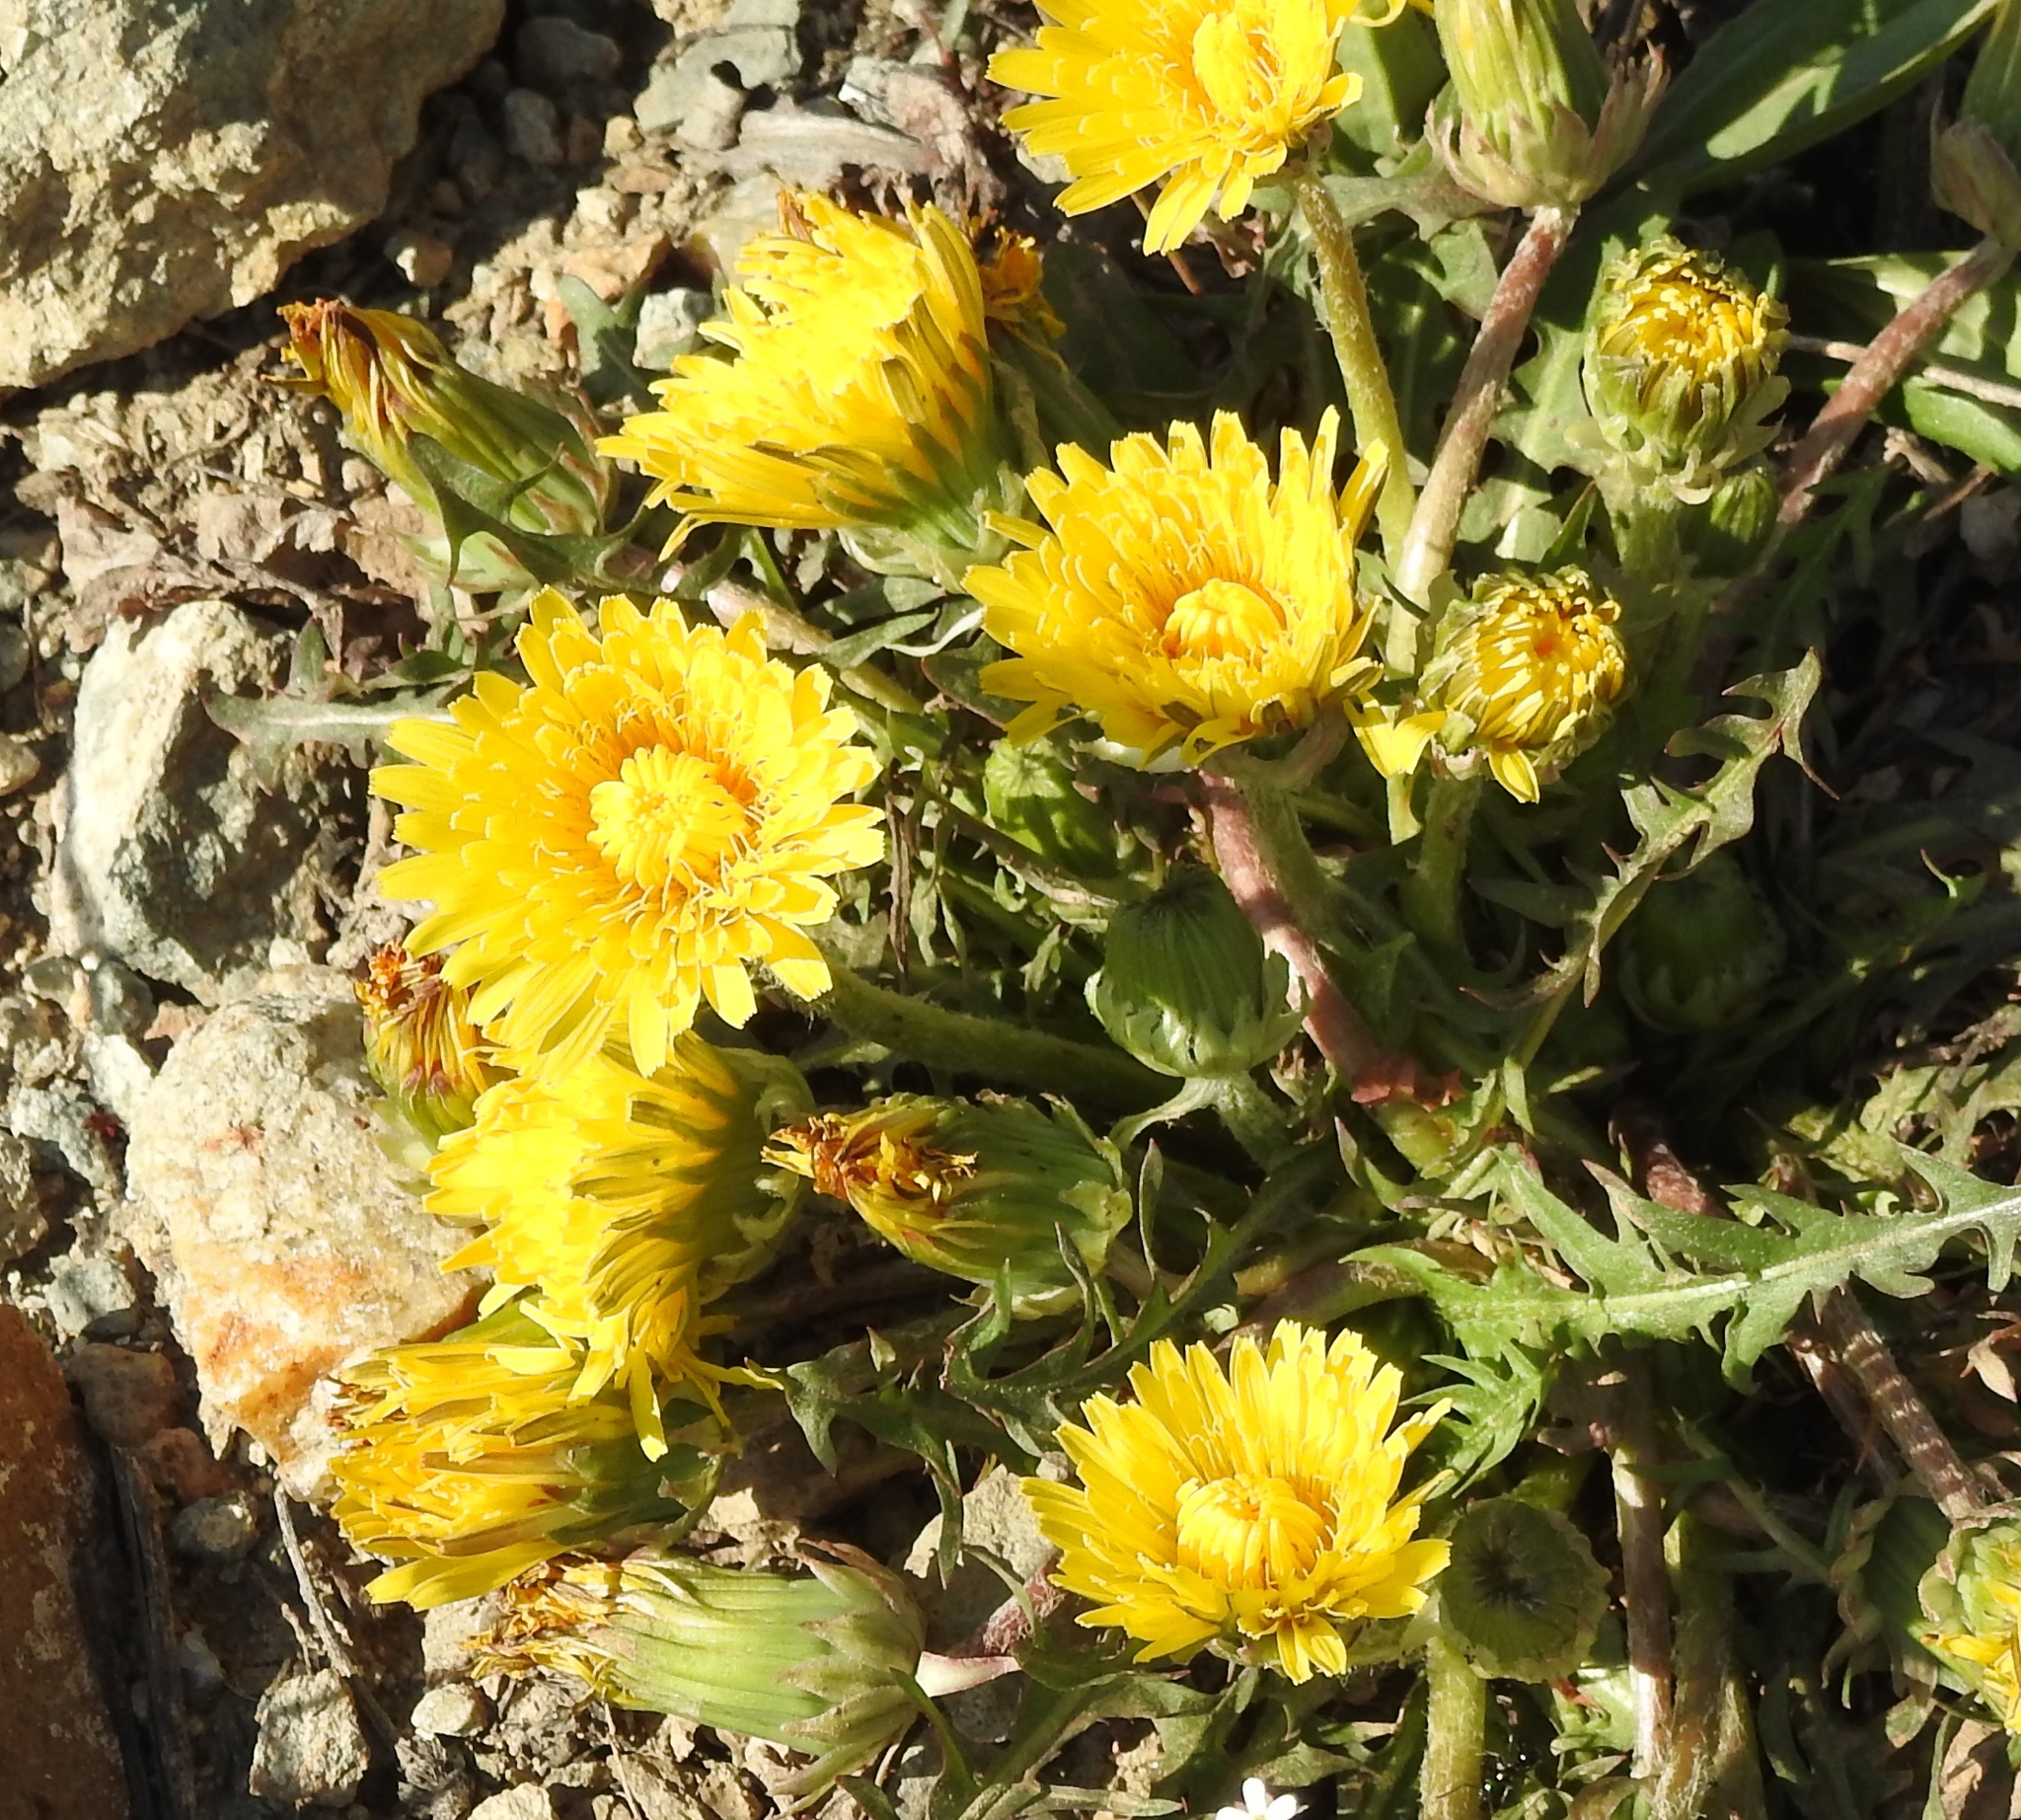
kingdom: Plantae
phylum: Tracheophyta
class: Magnoliopsida
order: Asterales
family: Asteraceae
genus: Taraxacum
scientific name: Taraxacum officinale
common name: Common dandelion
